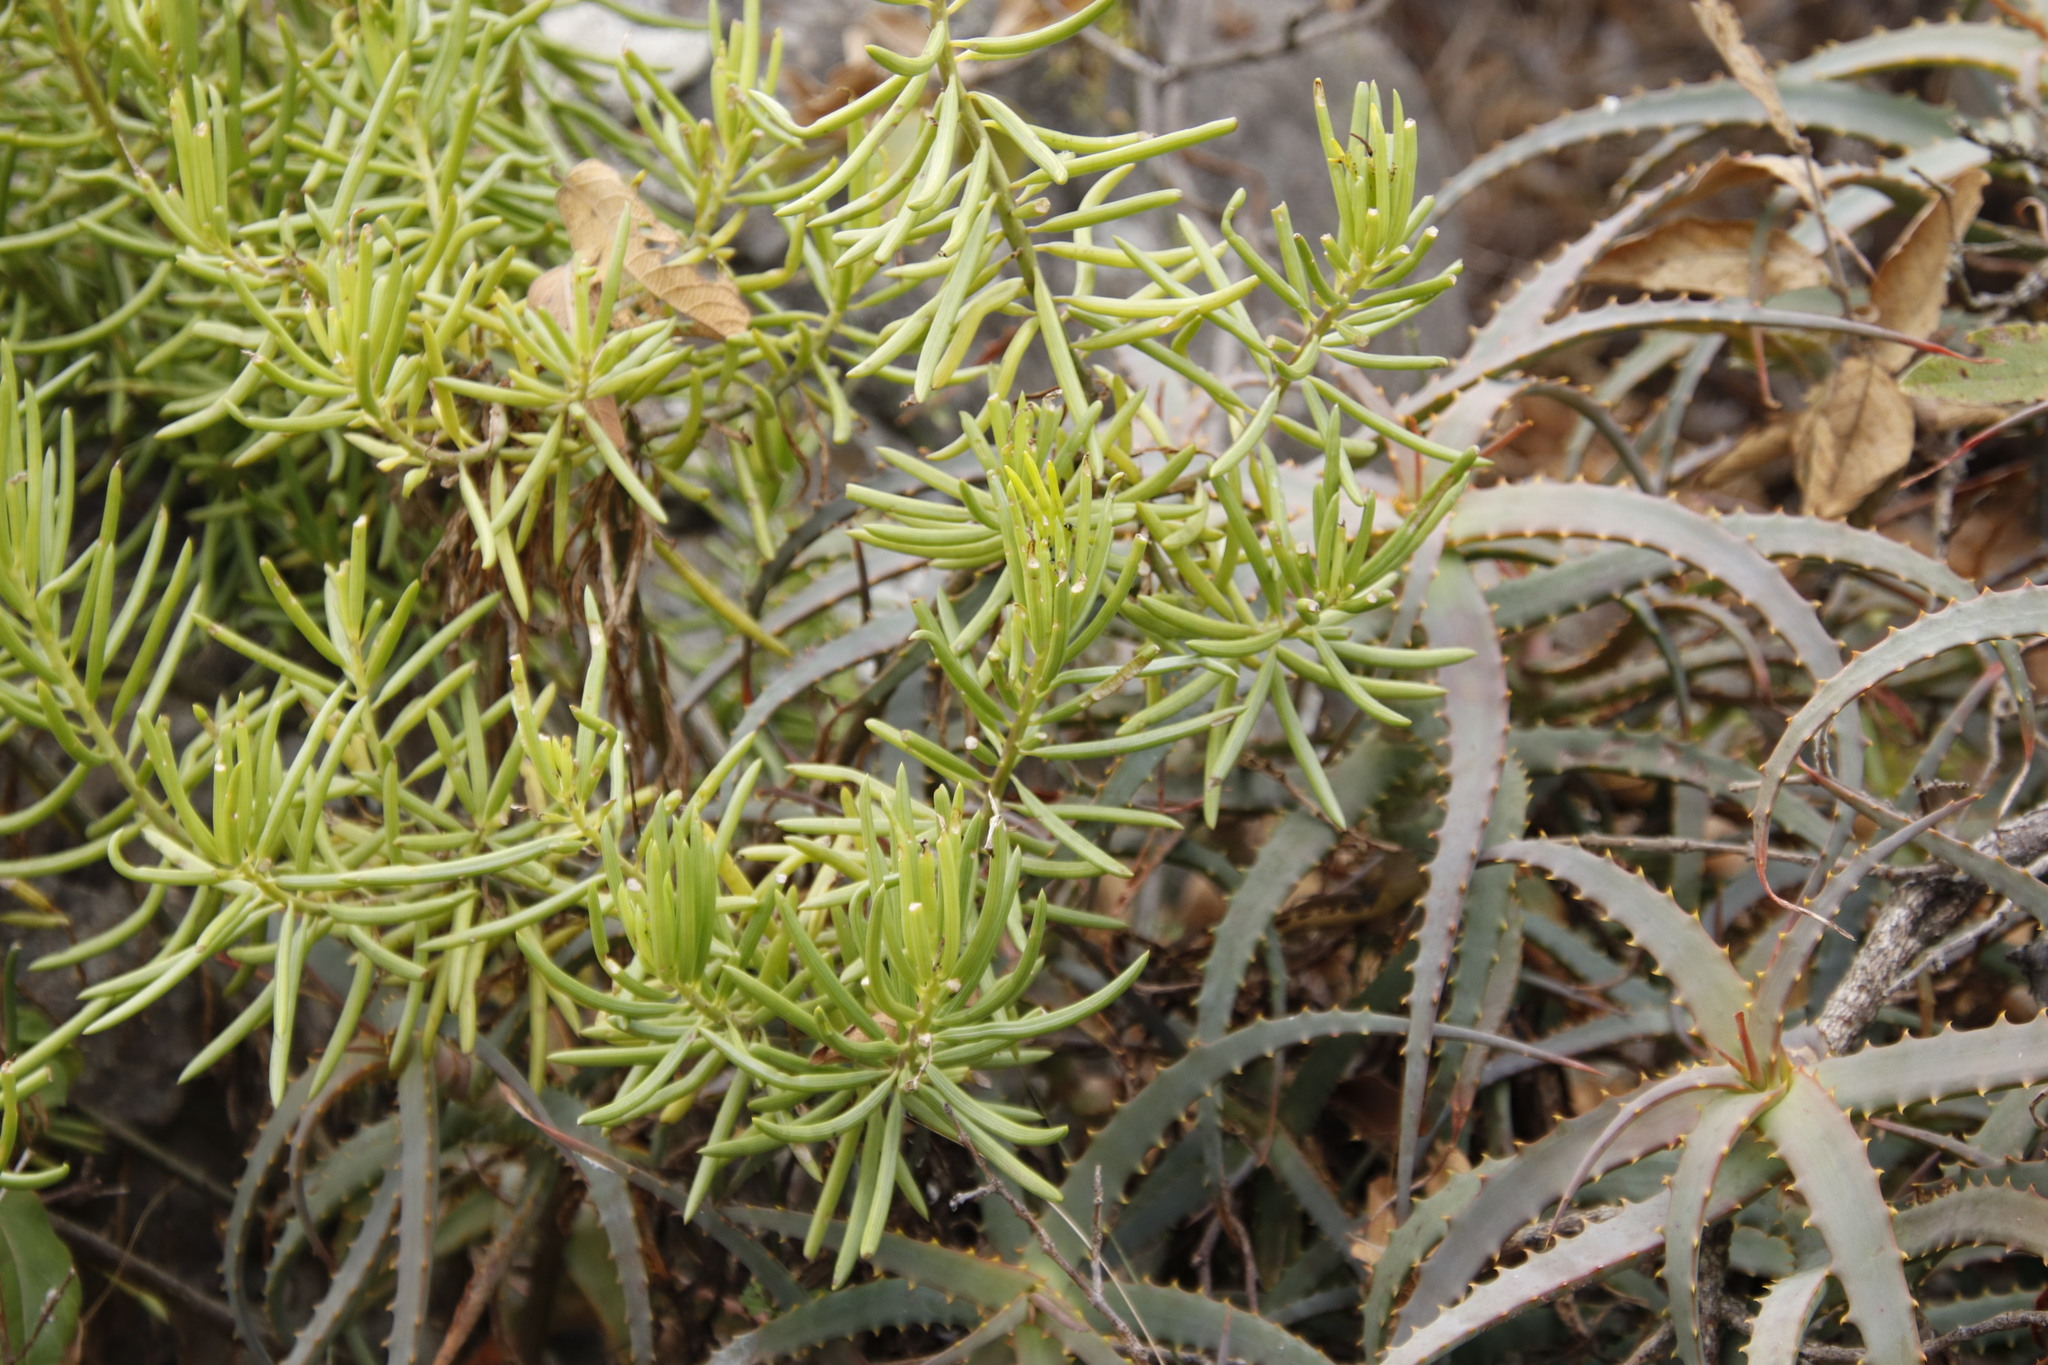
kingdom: Plantae
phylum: Tracheophyta
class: Magnoliopsida
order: Asterales
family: Asteraceae
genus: Kleinia
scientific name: Kleinia barbertonica
